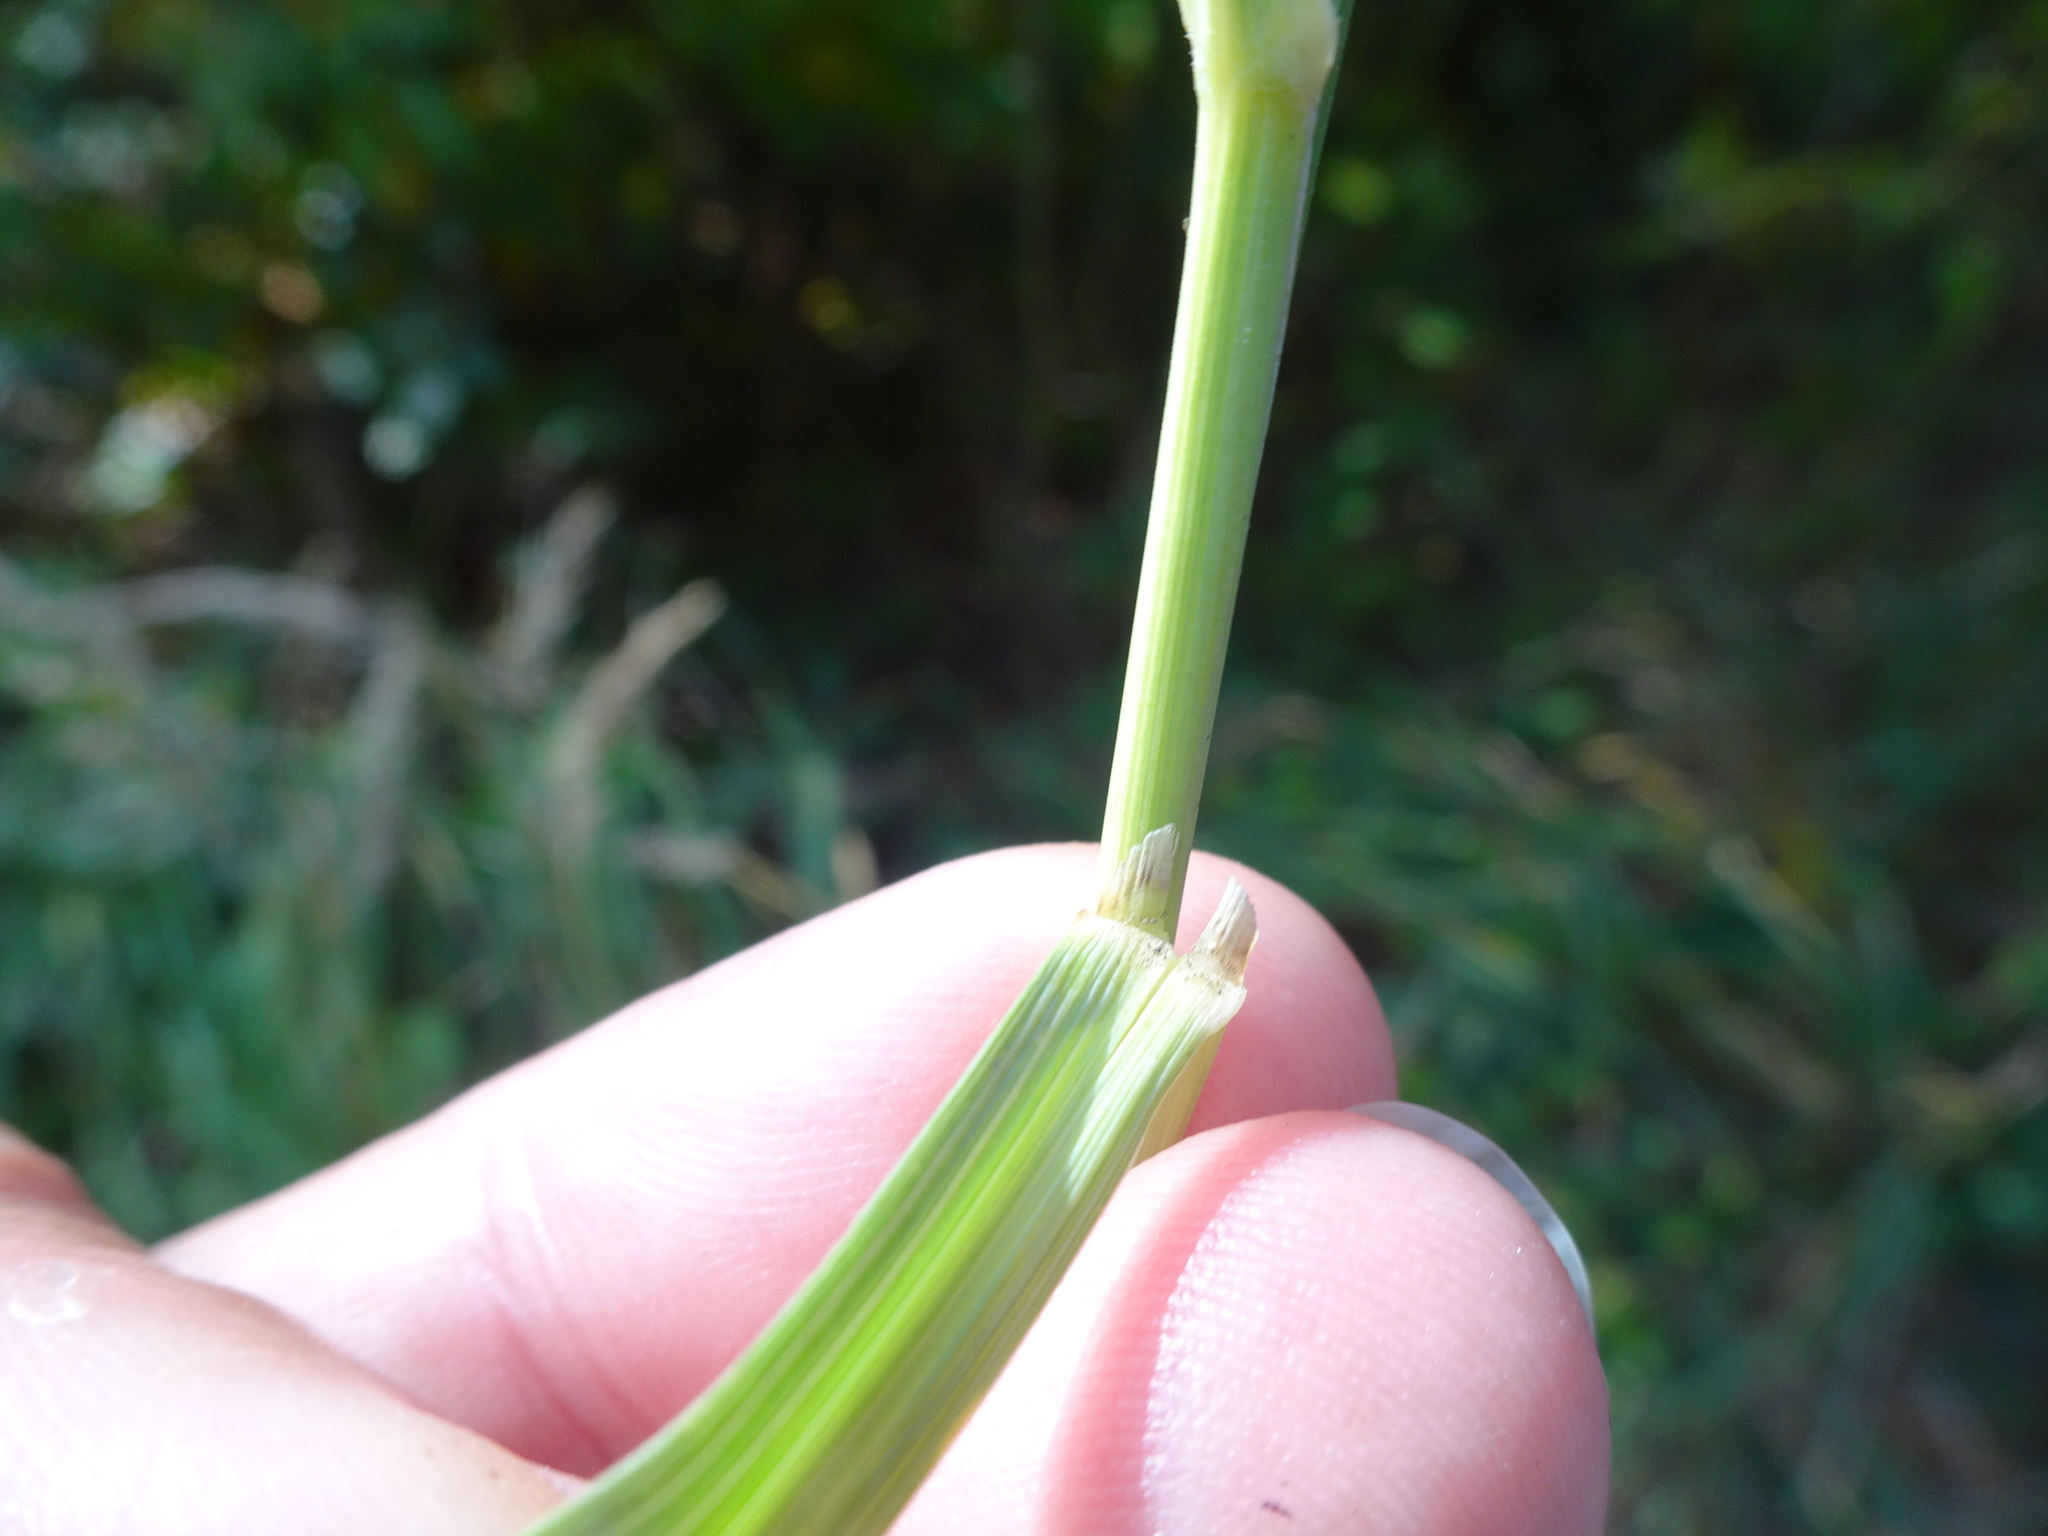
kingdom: Plantae
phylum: Tracheophyta
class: Liliopsida
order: Poales
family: Poaceae
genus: Calamagrostis
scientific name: Calamagrostis epigejos
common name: Wood small-reed
